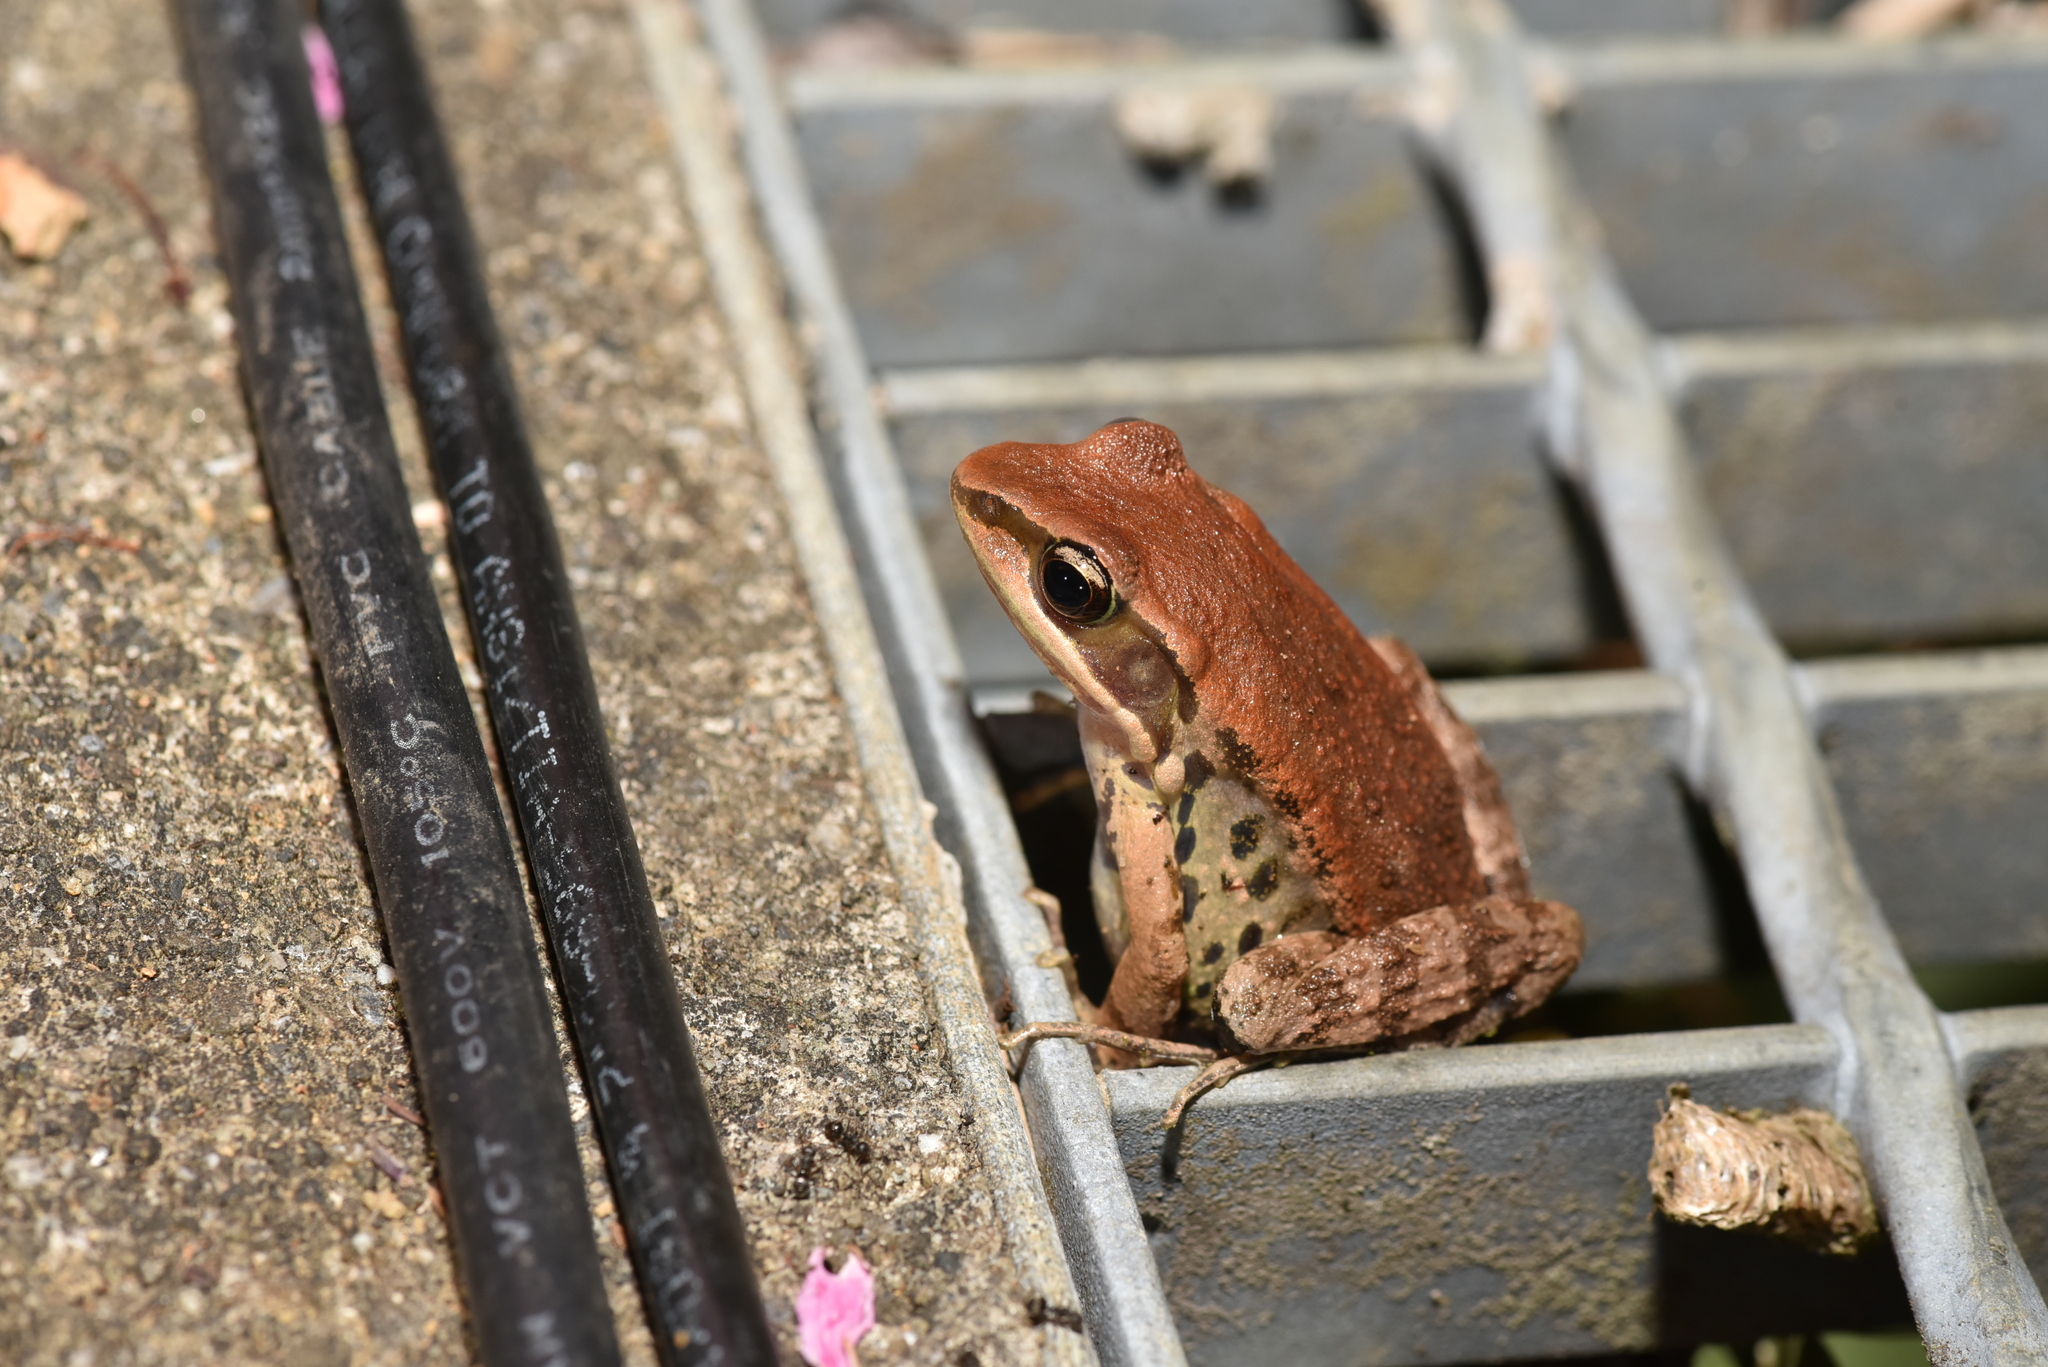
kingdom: Animalia
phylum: Chordata
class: Amphibia
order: Anura
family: Ranidae
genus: Hylarana
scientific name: Hylarana latouchii
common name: Broad-folded frog
